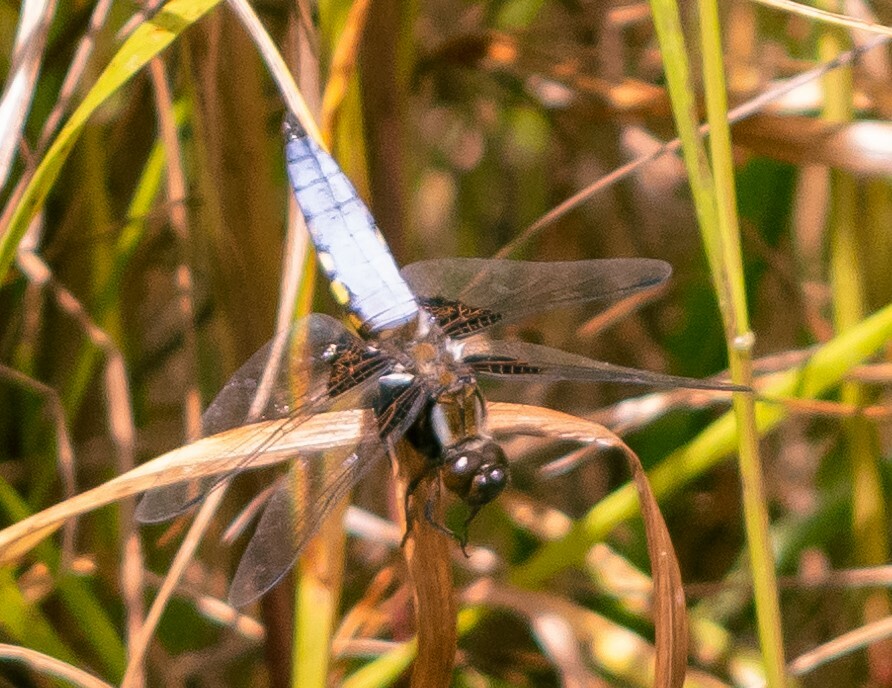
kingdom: Animalia
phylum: Arthropoda
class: Insecta
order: Odonata
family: Libellulidae
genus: Libellula
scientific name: Libellula depressa
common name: Broad-bodied chaser
